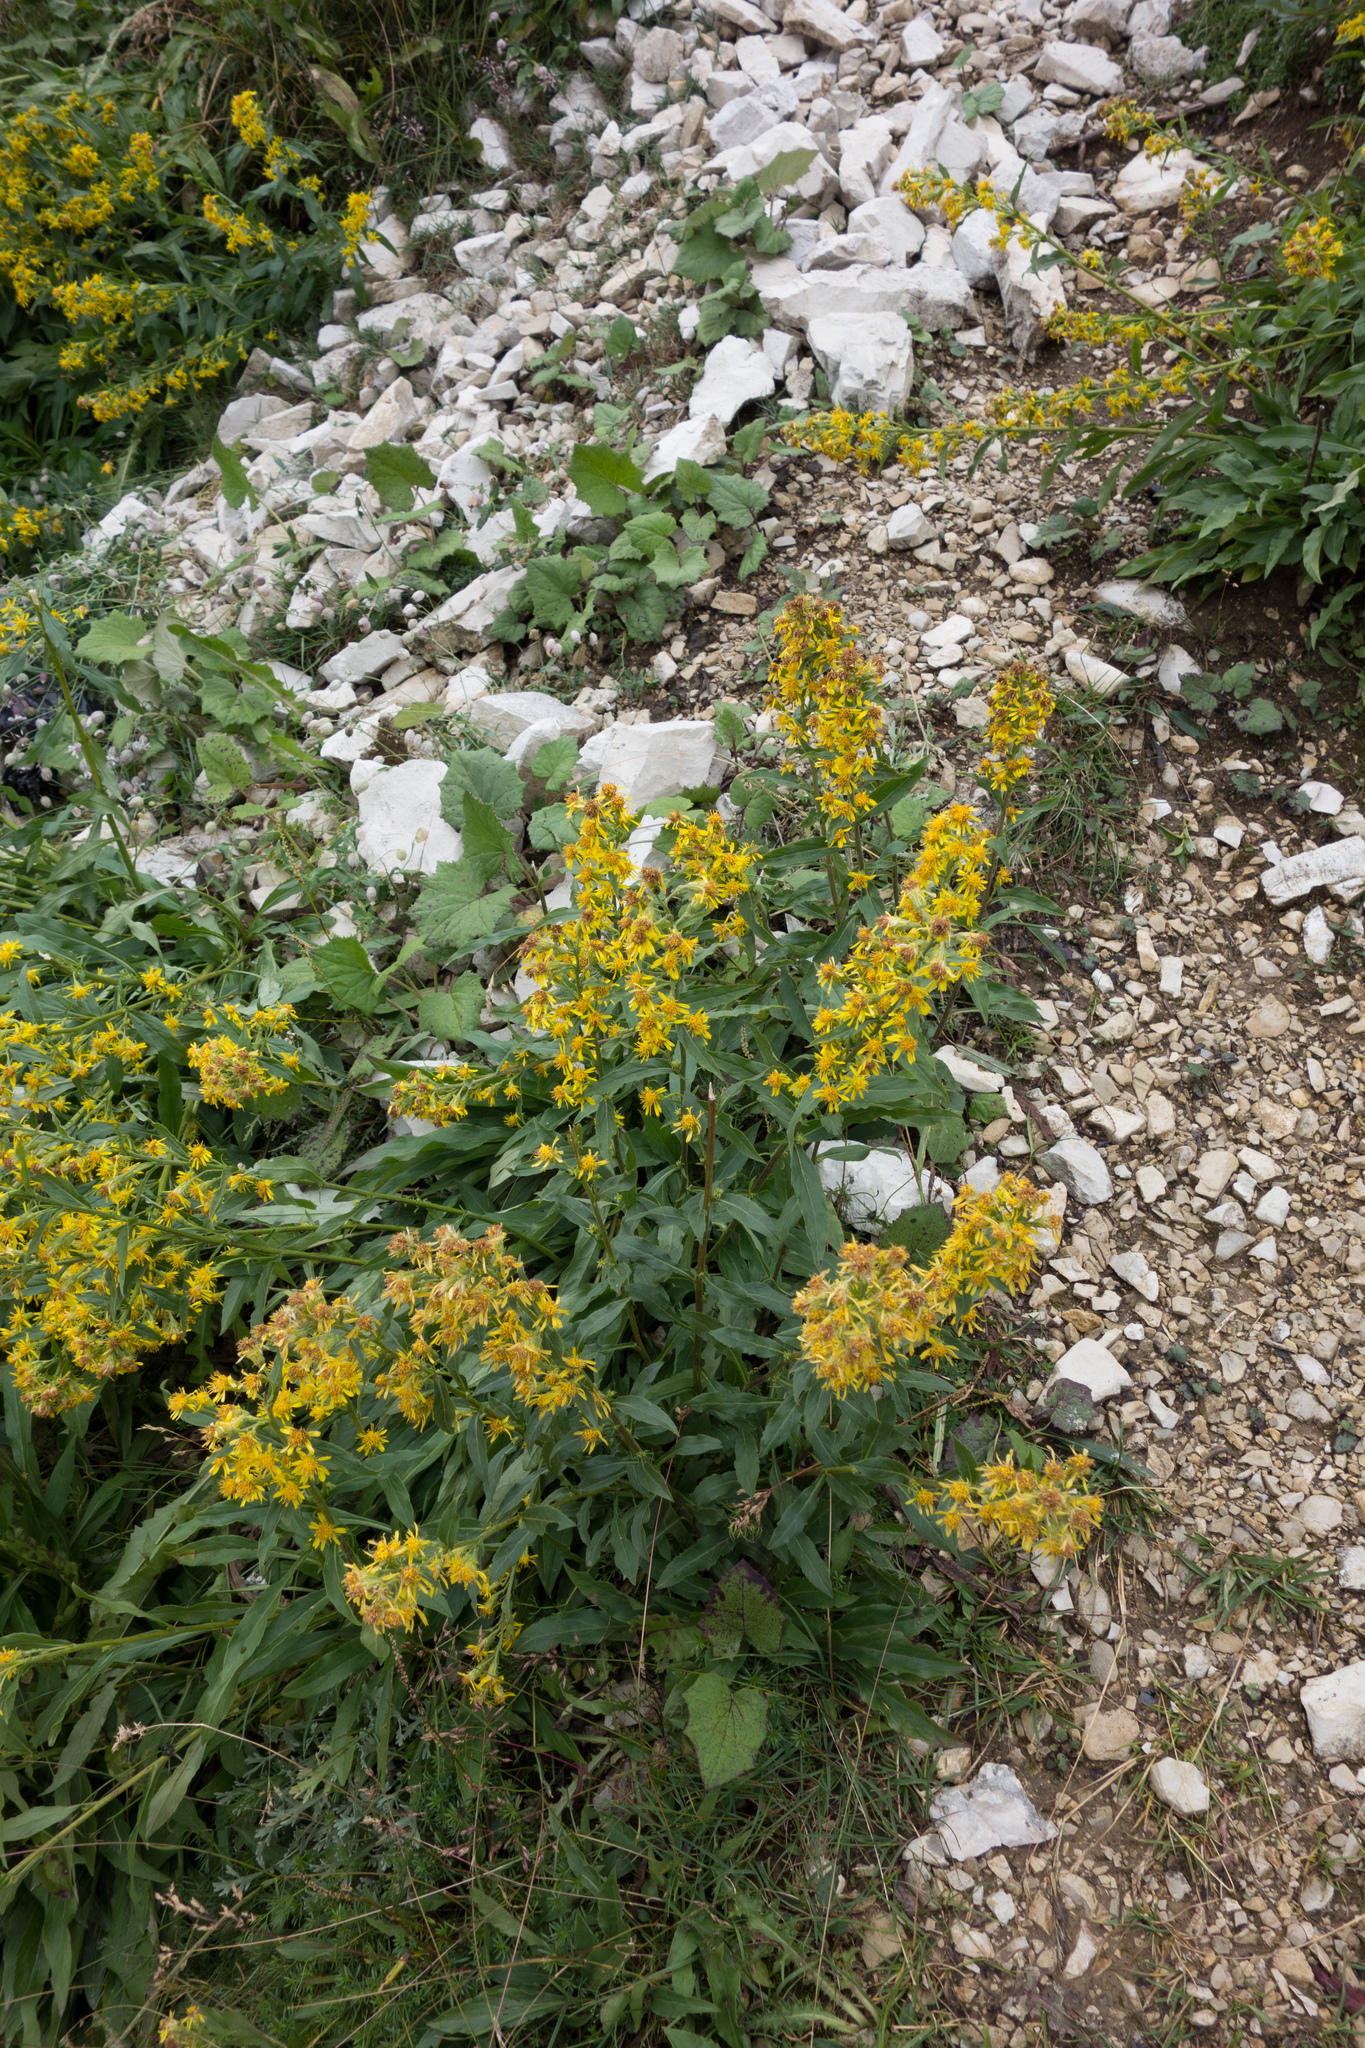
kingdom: Plantae
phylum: Tracheophyta
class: Magnoliopsida
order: Asterales
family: Asteraceae
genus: Solidago
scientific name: Solidago virgaurea
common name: Goldenrod
